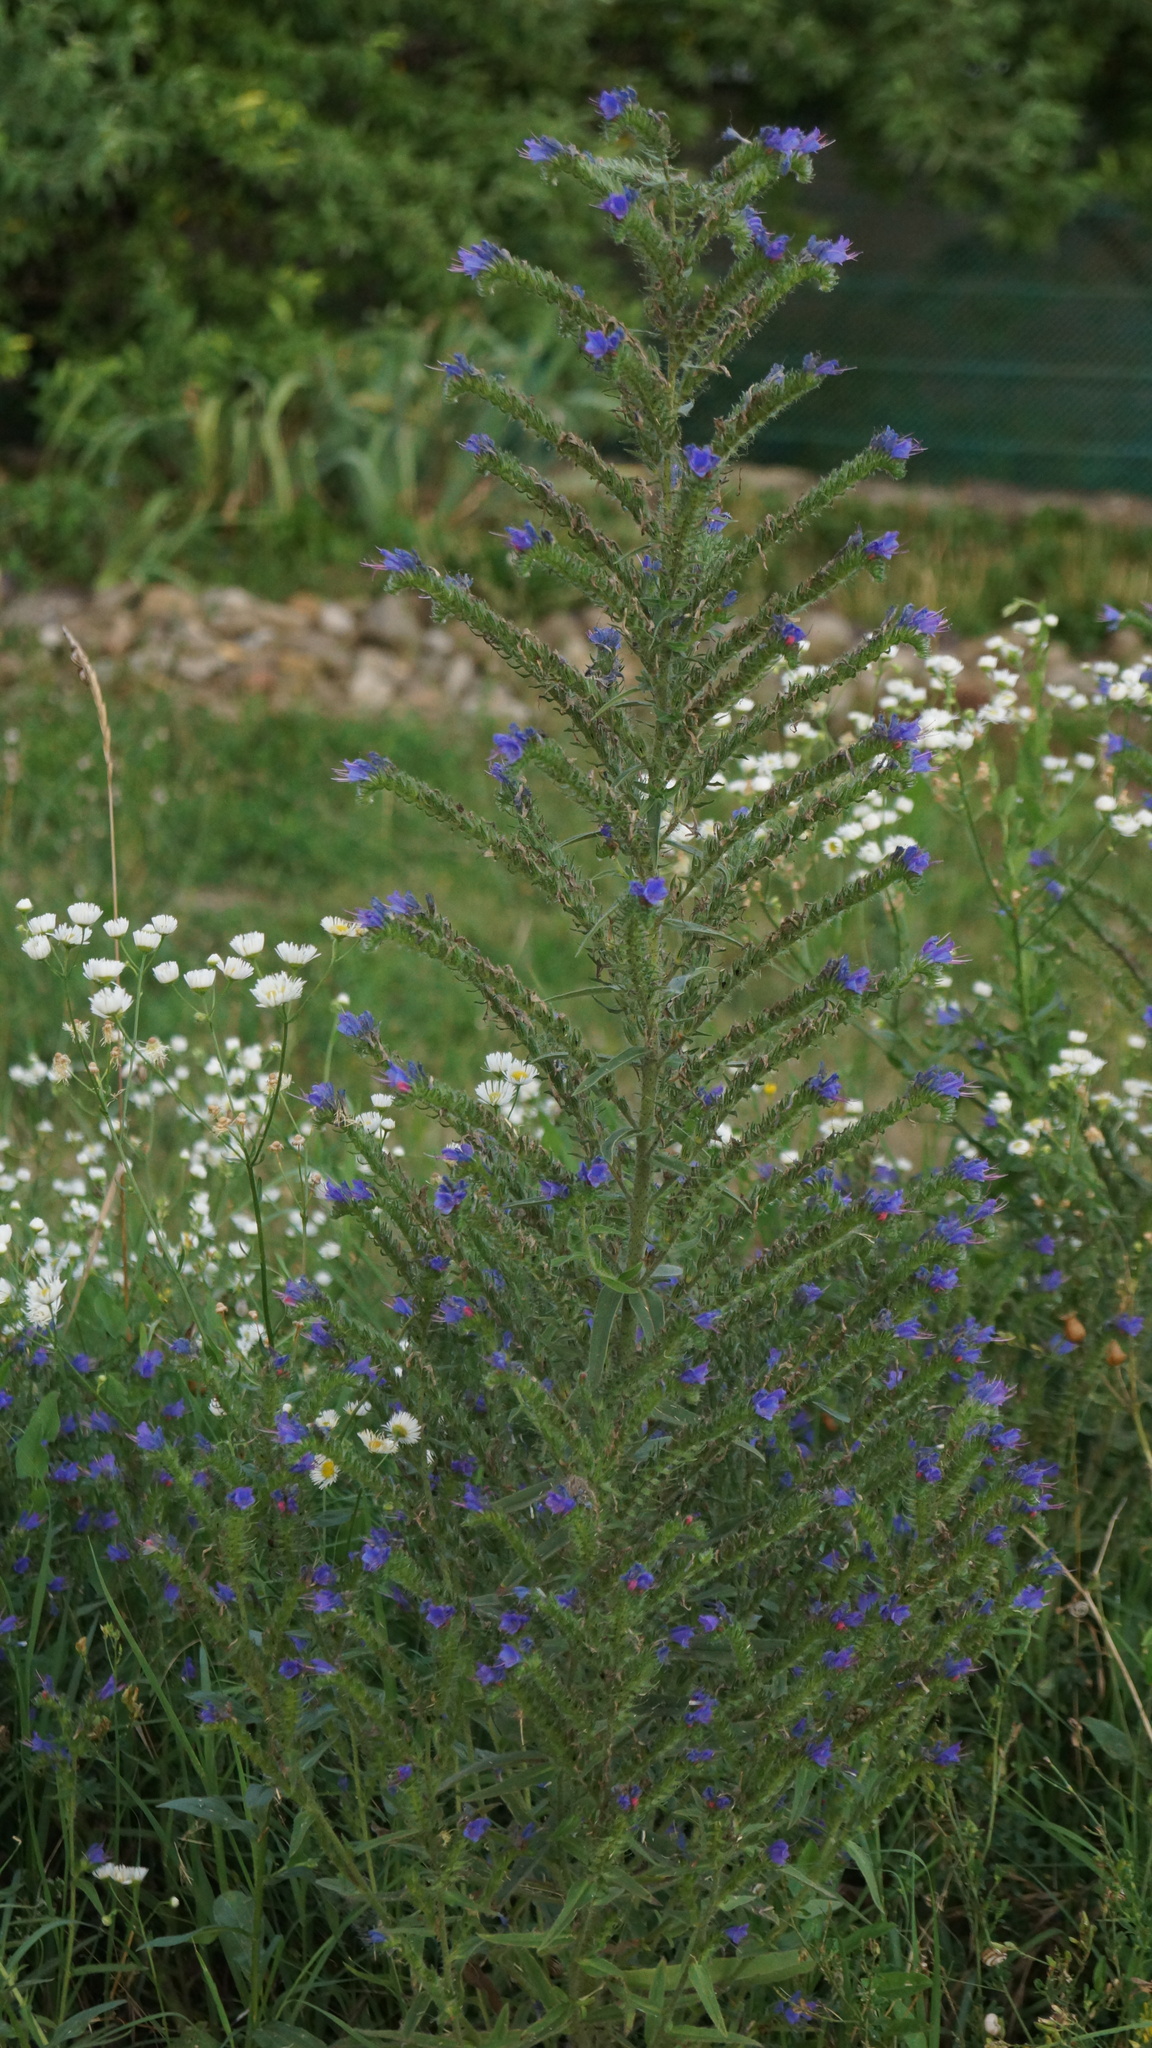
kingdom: Plantae
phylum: Tracheophyta
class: Magnoliopsida
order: Boraginales
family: Boraginaceae
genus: Echium
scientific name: Echium vulgare
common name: Common viper's bugloss
